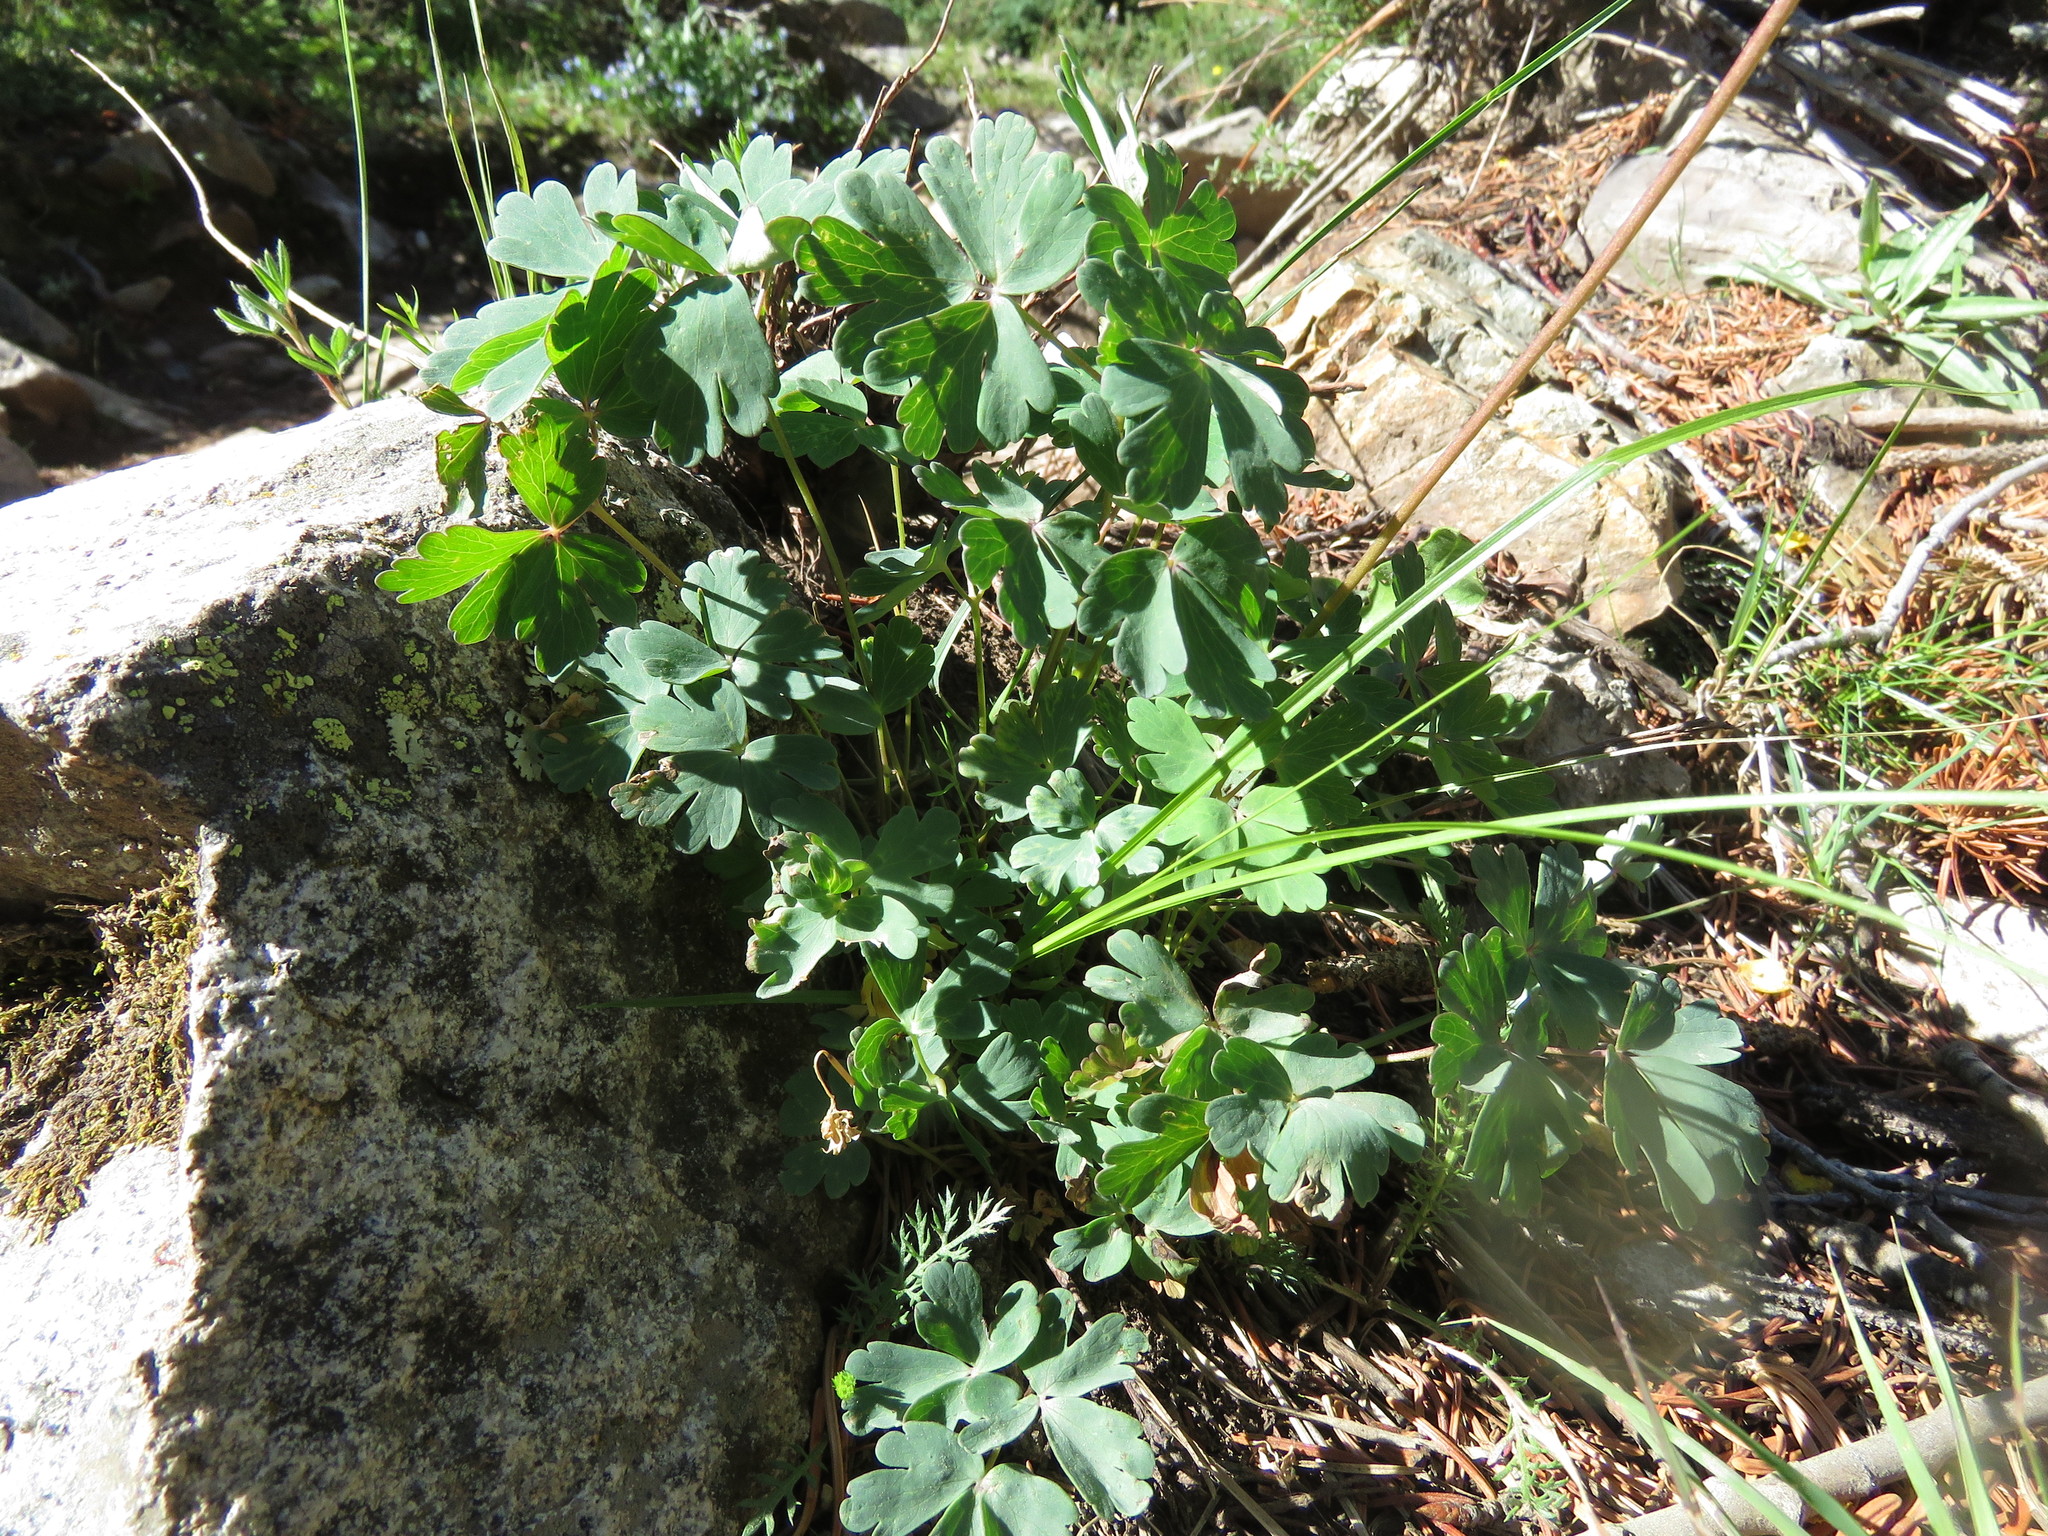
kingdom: Plantae
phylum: Tracheophyta
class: Magnoliopsida
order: Ranunculales
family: Ranunculaceae
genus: Aquilegia
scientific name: Aquilegia coerulea
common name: Rocky mountain columbine
